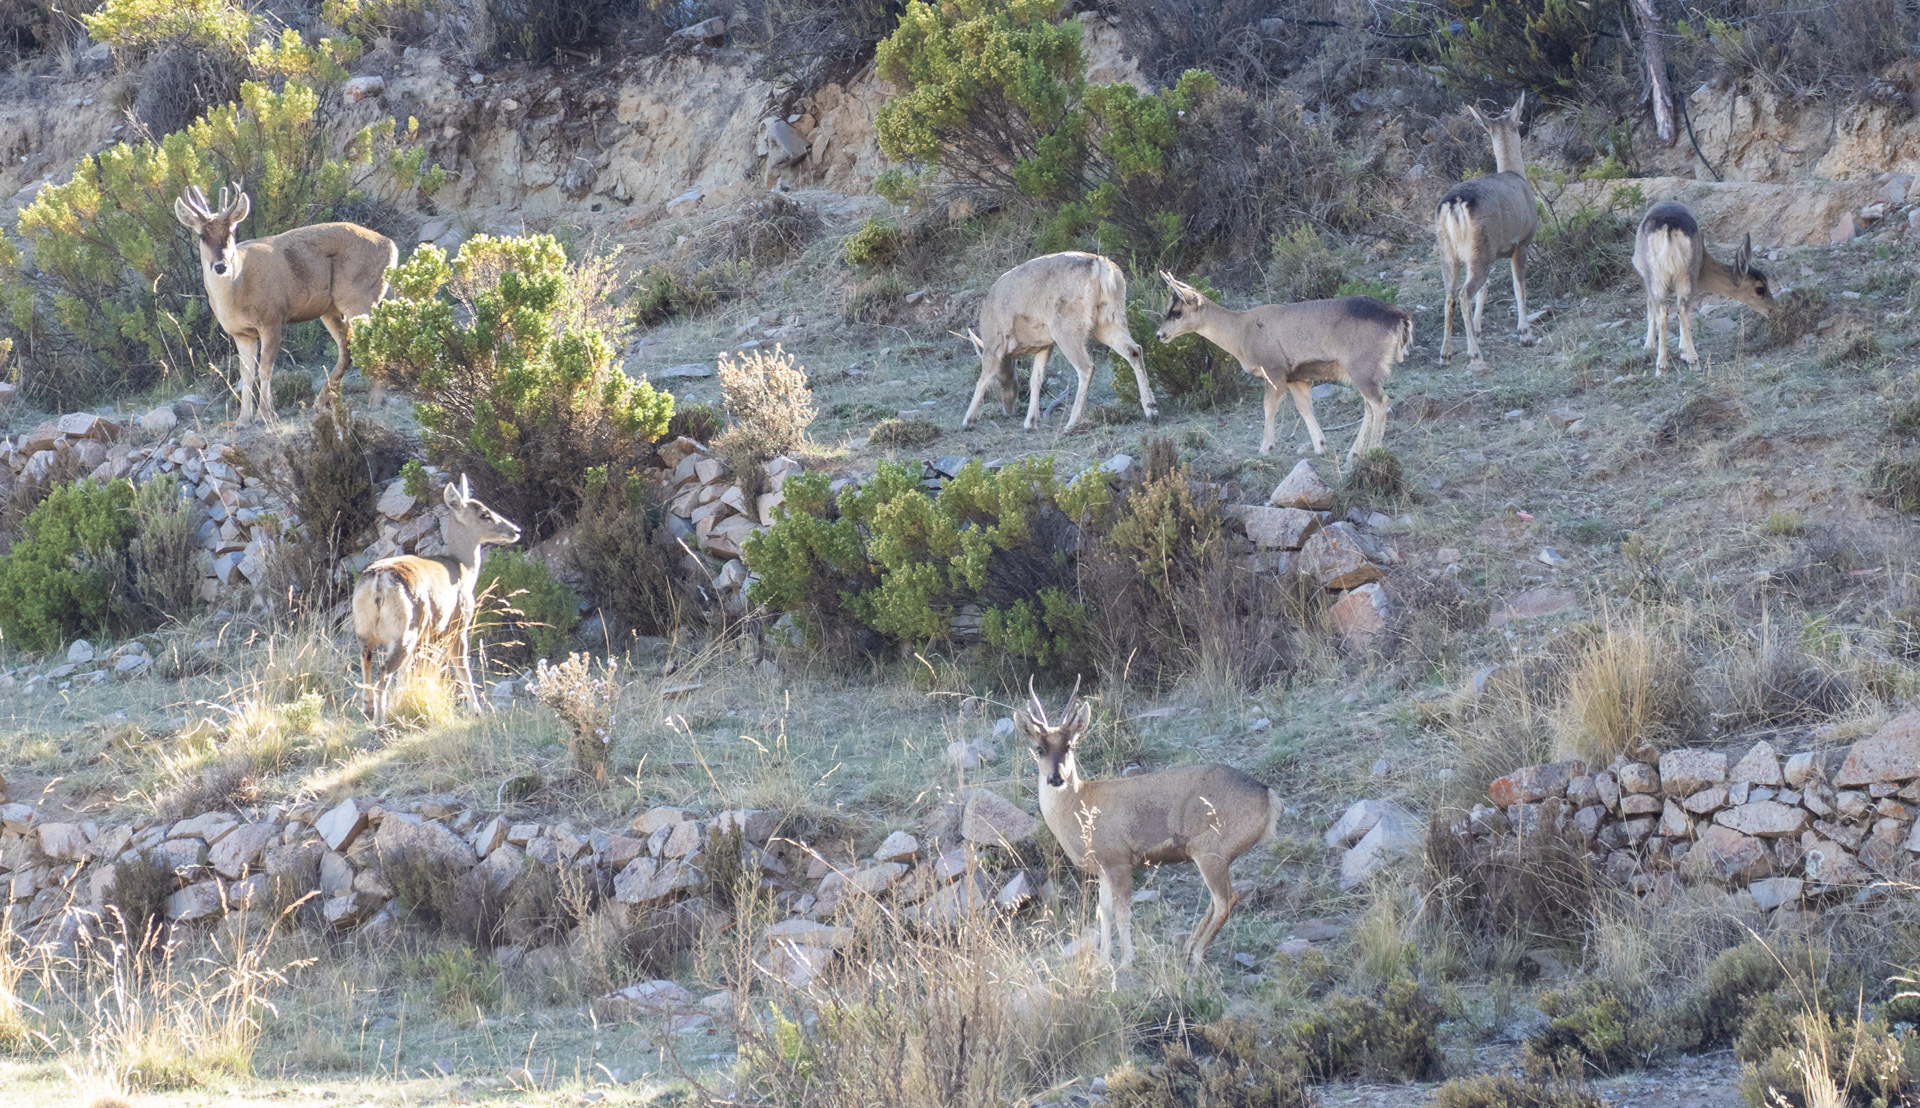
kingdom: Animalia
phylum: Chordata
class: Mammalia
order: Artiodactyla
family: Cervidae
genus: Hippocamelus
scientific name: Hippocamelus antisensis
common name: Taruca
